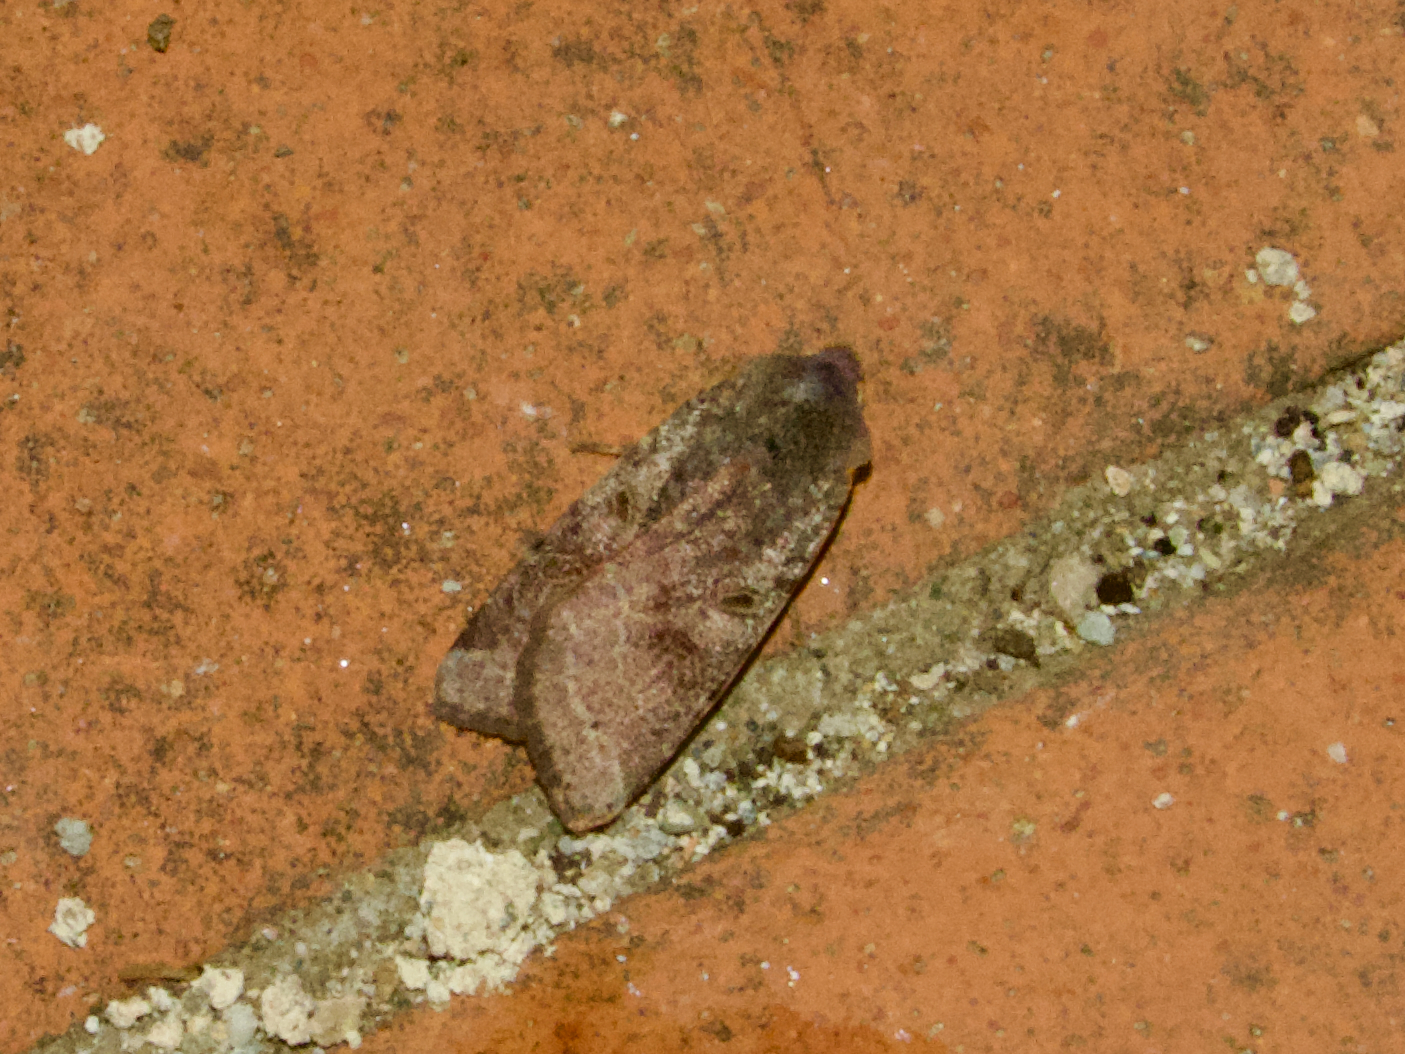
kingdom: Animalia
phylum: Arthropoda
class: Insecta
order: Lepidoptera
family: Noctuidae
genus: Agrochola
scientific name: Agrochola lychnidis
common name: Beaded chestnut
